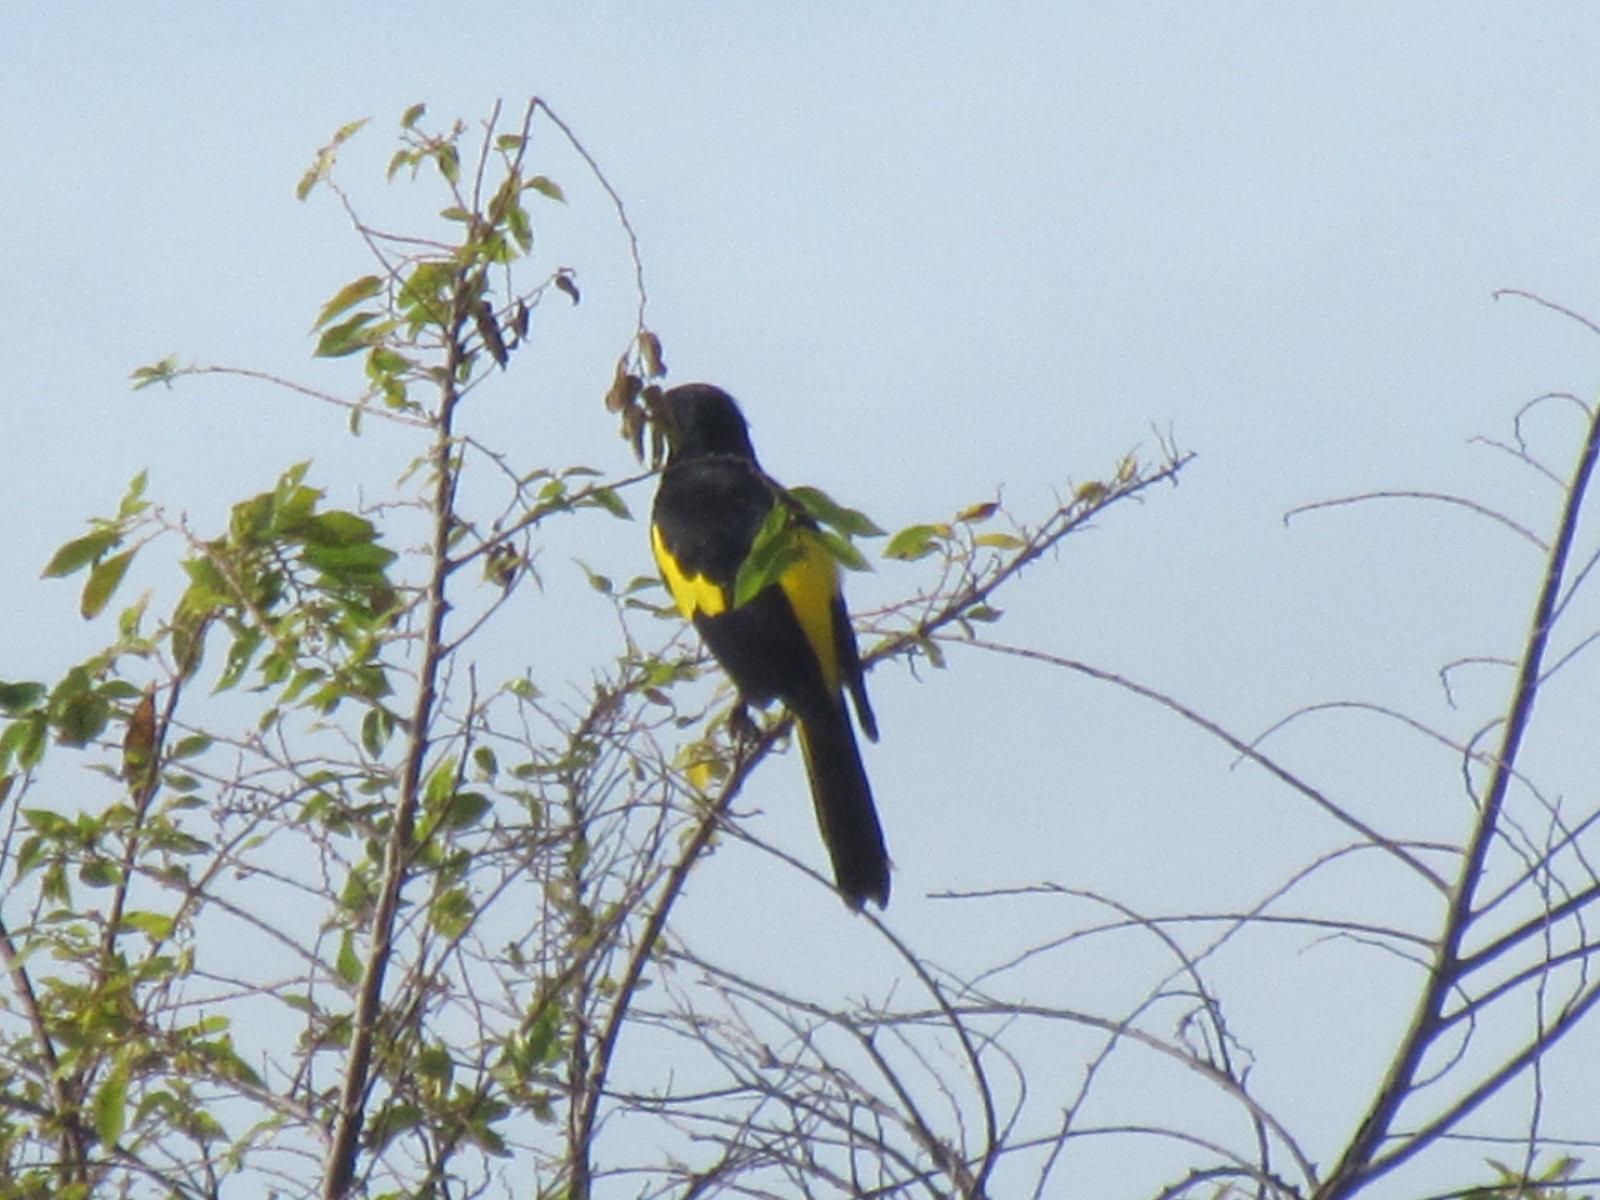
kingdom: Animalia
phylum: Chordata
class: Aves
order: Passeriformes
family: Icteridae
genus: Cacicus
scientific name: Cacicus melanicterus
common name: Yellow-winged cacique
